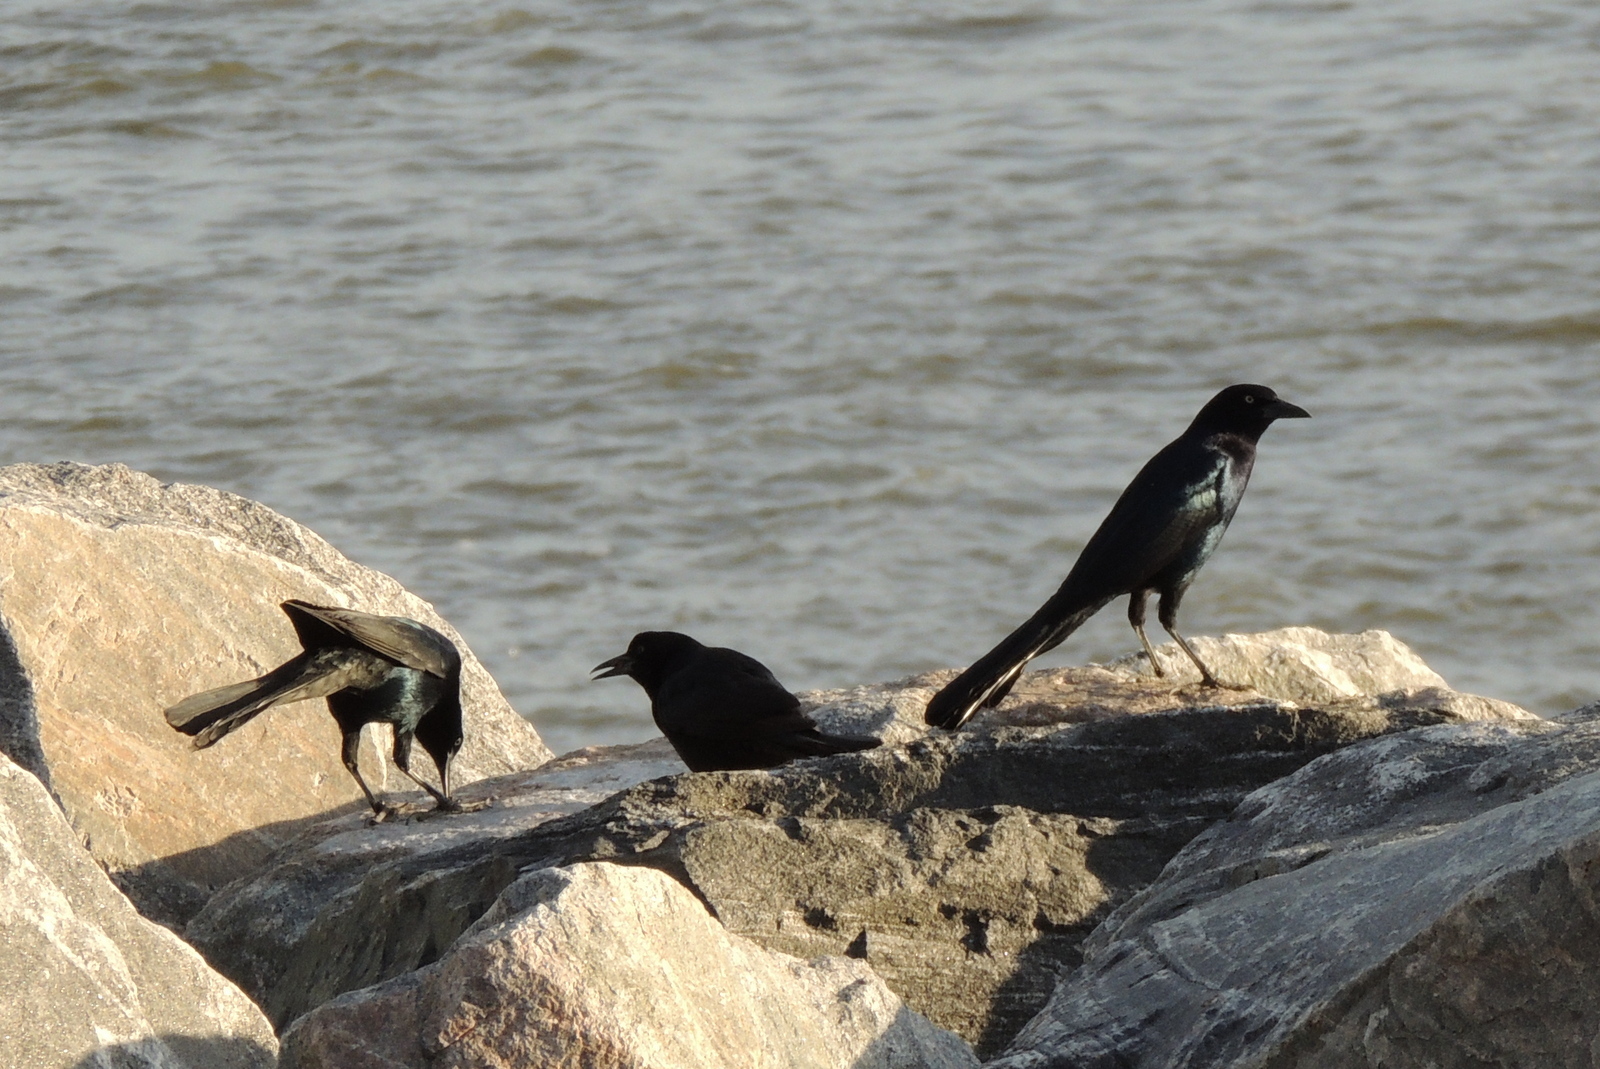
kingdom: Animalia
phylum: Chordata
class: Aves
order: Passeriformes
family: Icteridae
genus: Quiscalus
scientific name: Quiscalus major
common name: Boat-tailed grackle
